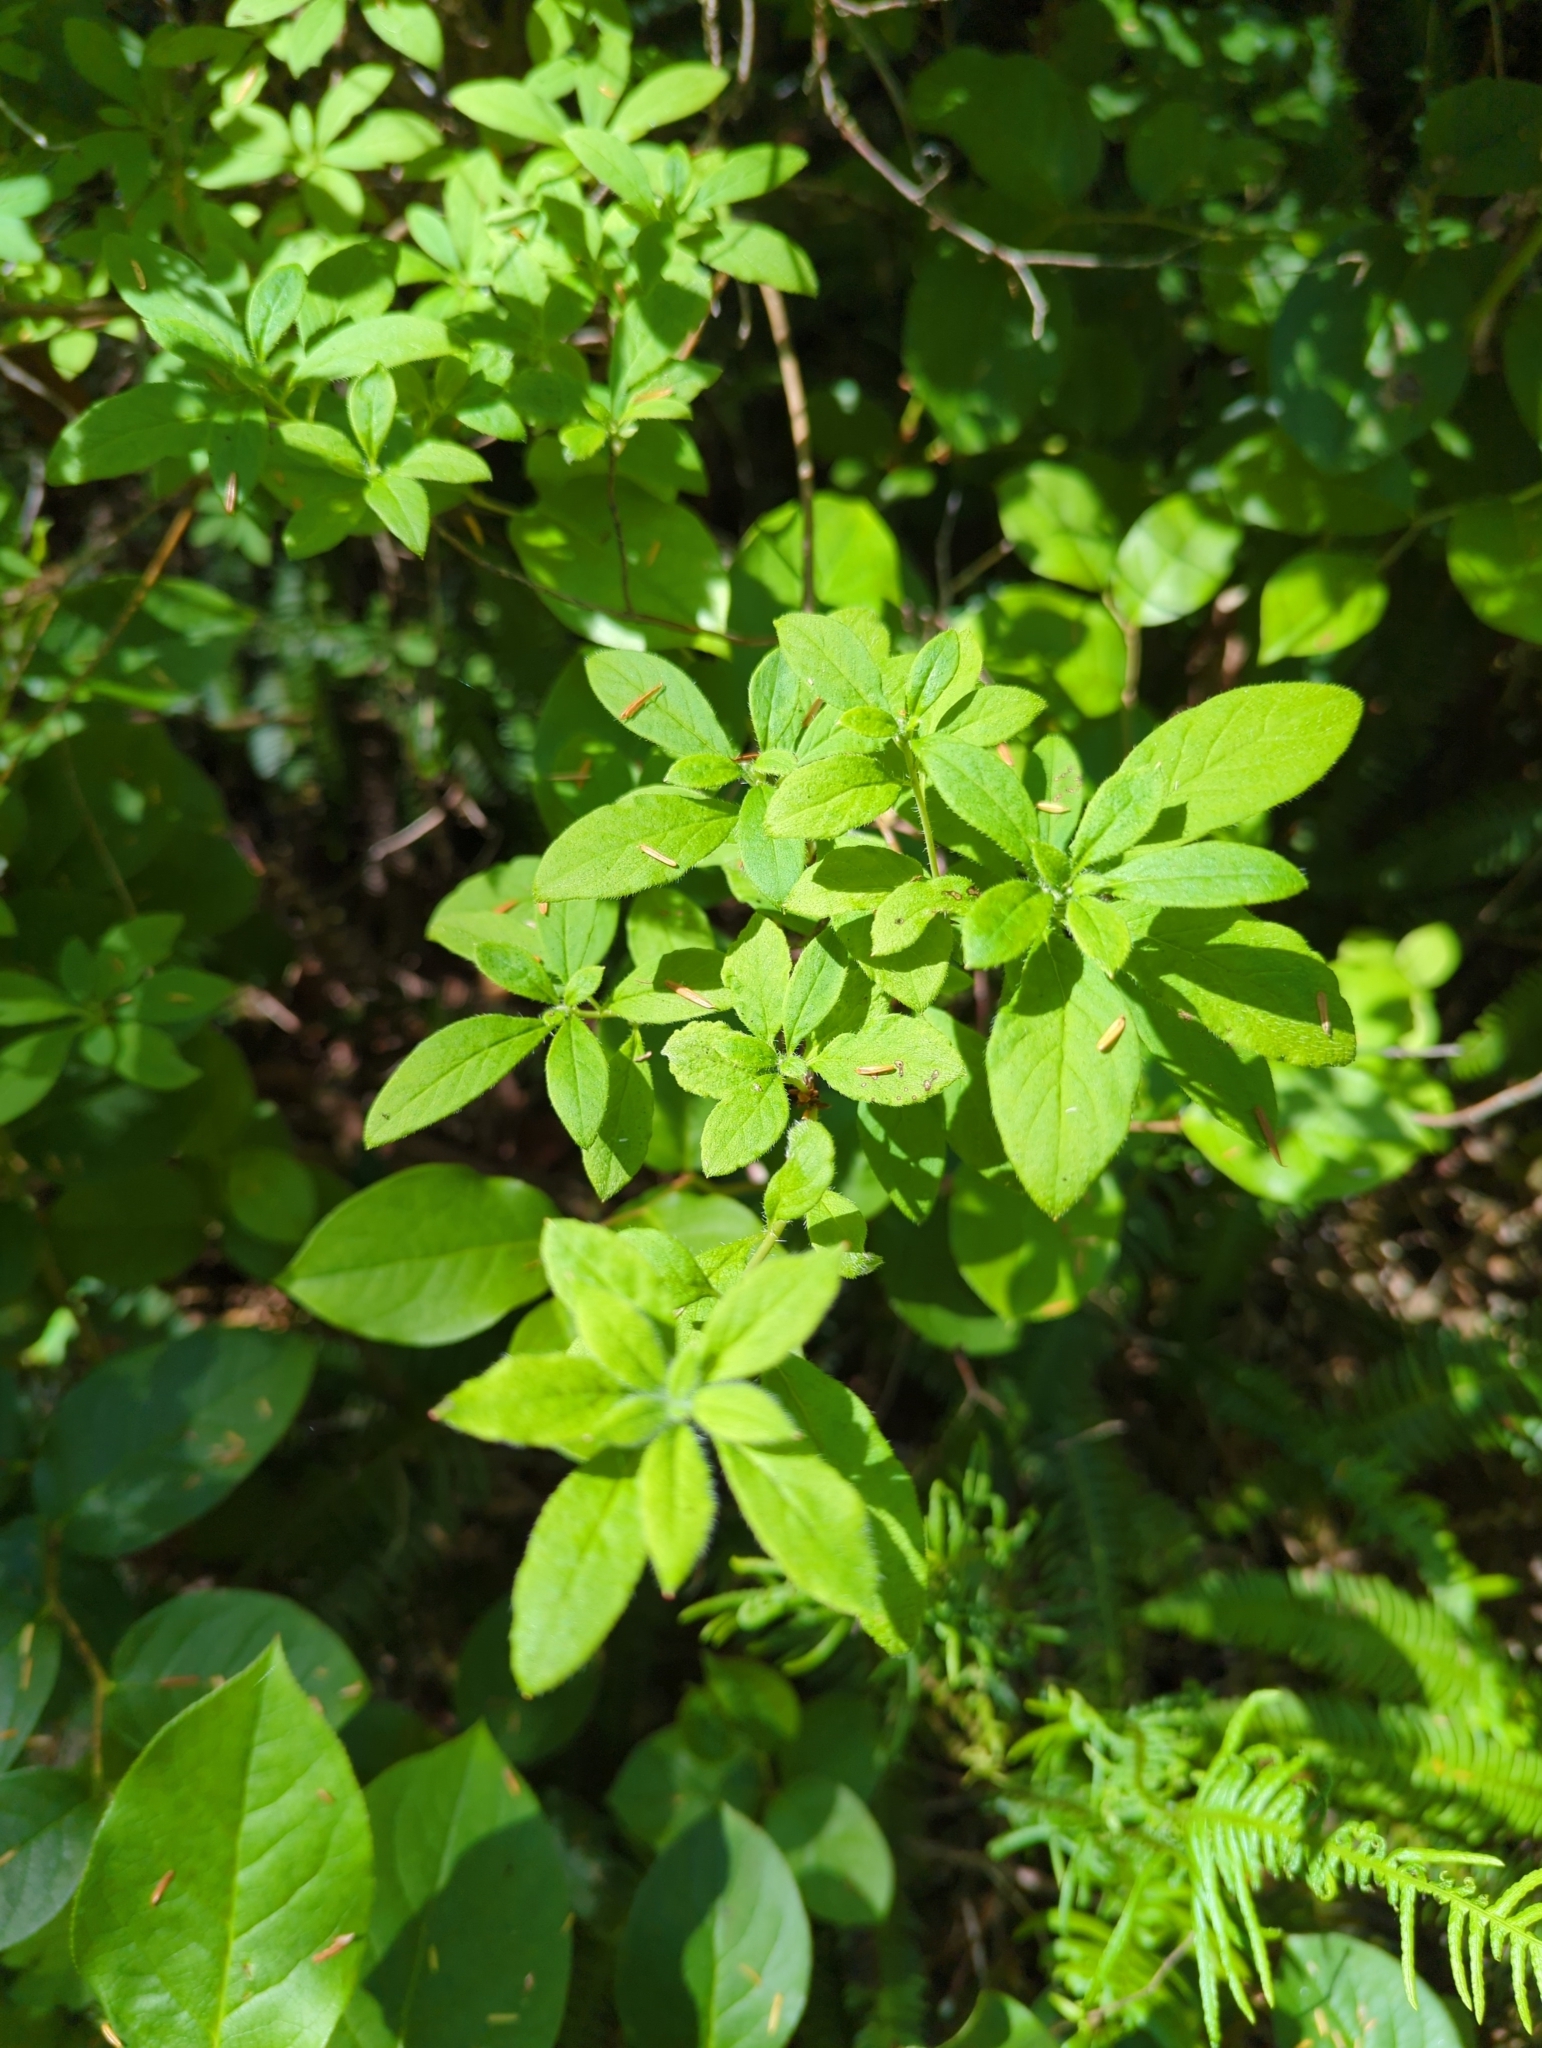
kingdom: Plantae
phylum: Tracheophyta
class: Magnoliopsida
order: Ericales
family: Ericaceae
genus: Rhododendron
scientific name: Rhododendron menziesii
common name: Pacific menziesia
